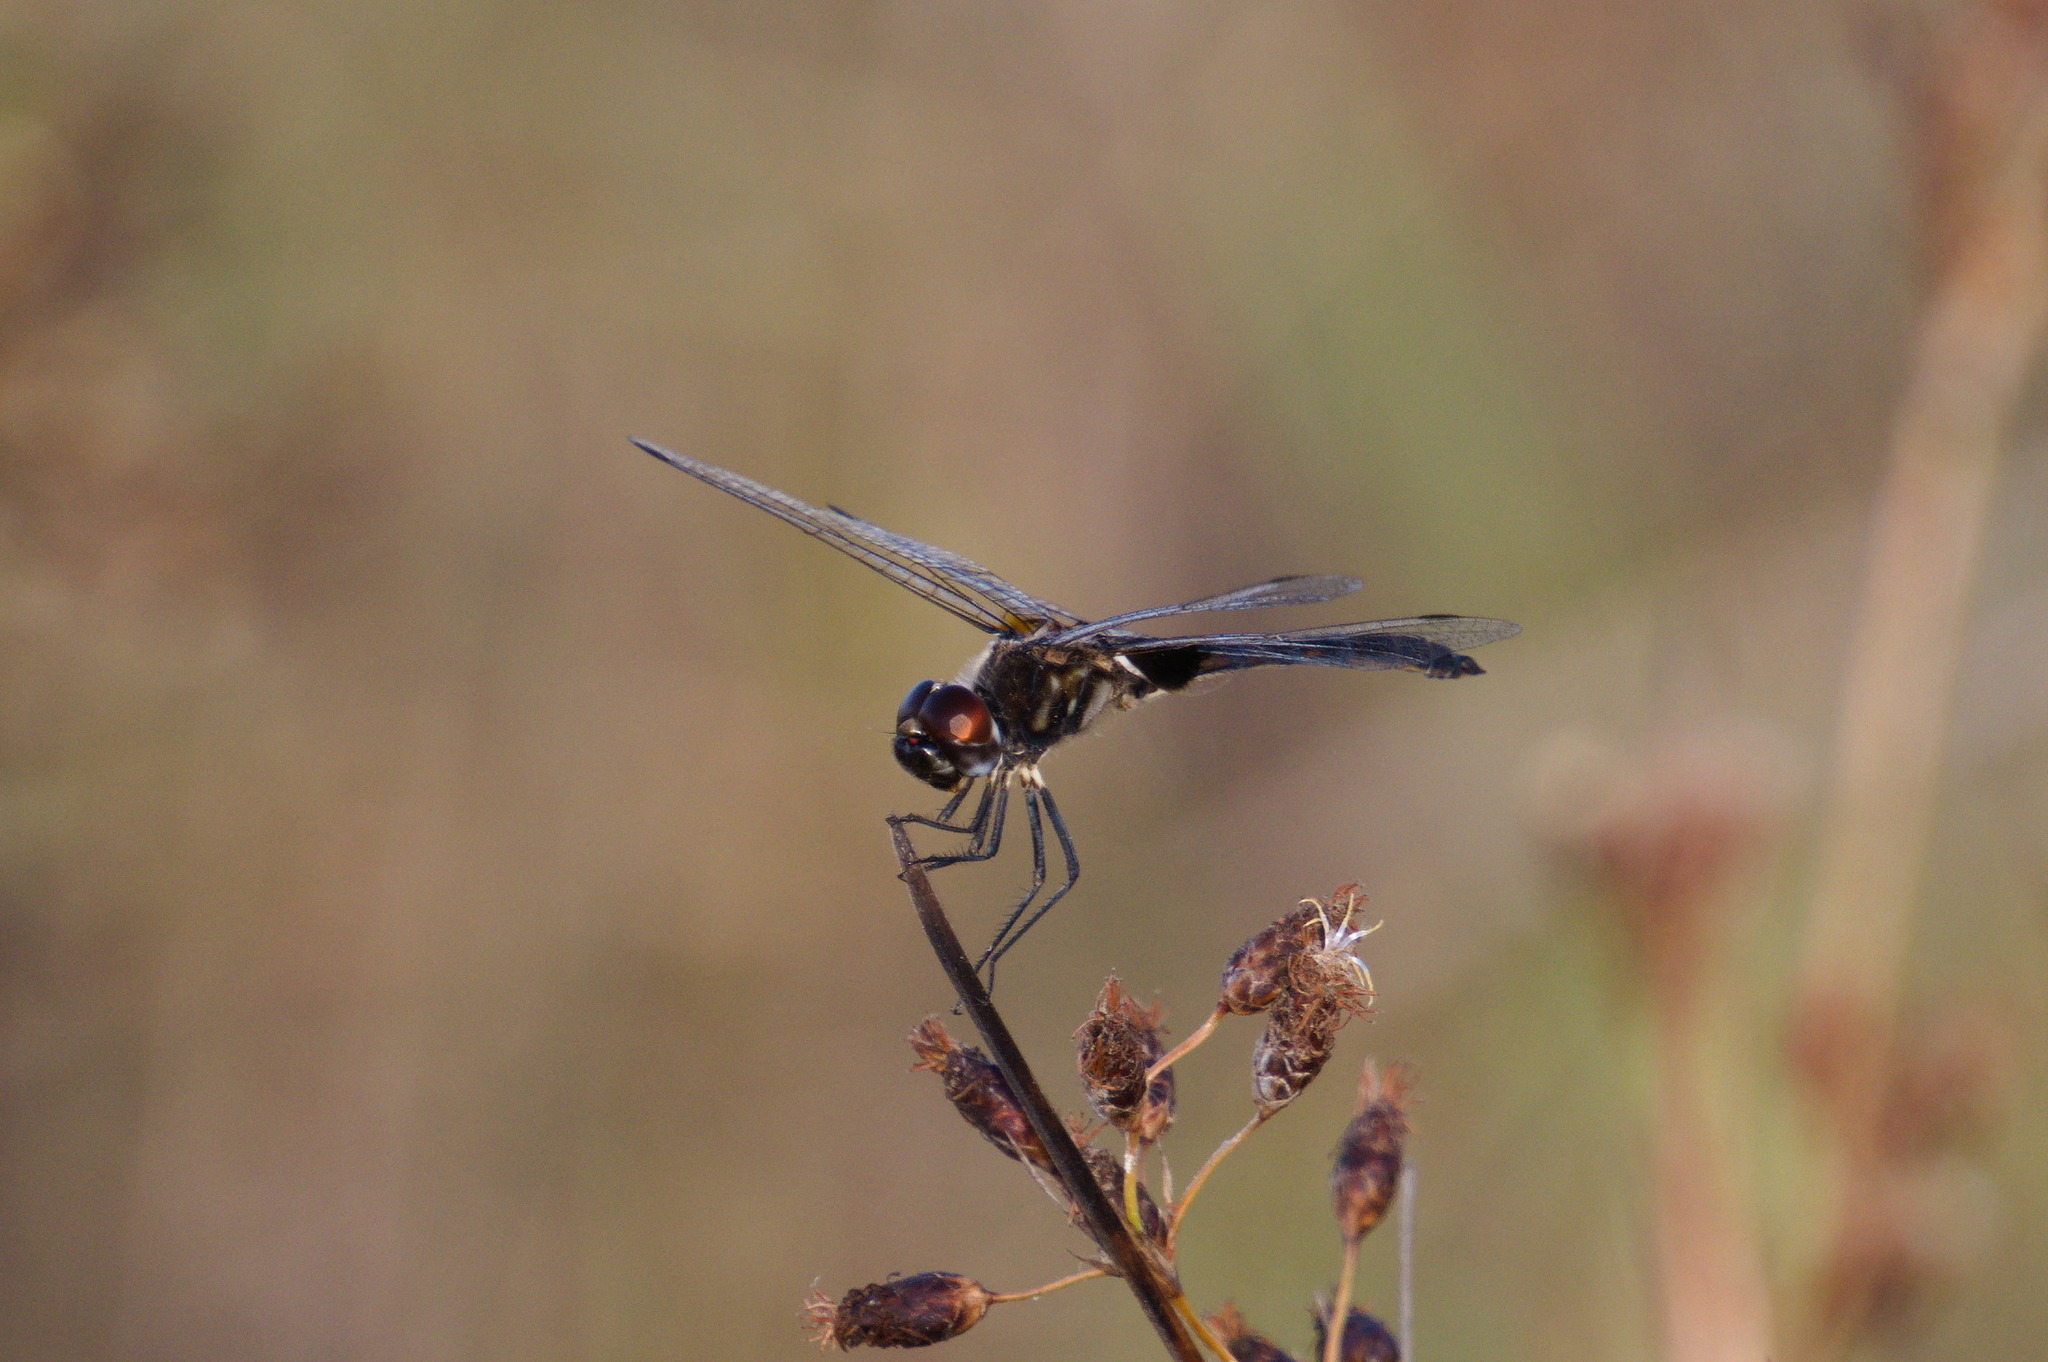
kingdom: Animalia
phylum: Arthropoda
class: Insecta
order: Odonata
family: Libellulidae
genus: Macrodiplax
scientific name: Macrodiplax balteata
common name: Marl pennant
